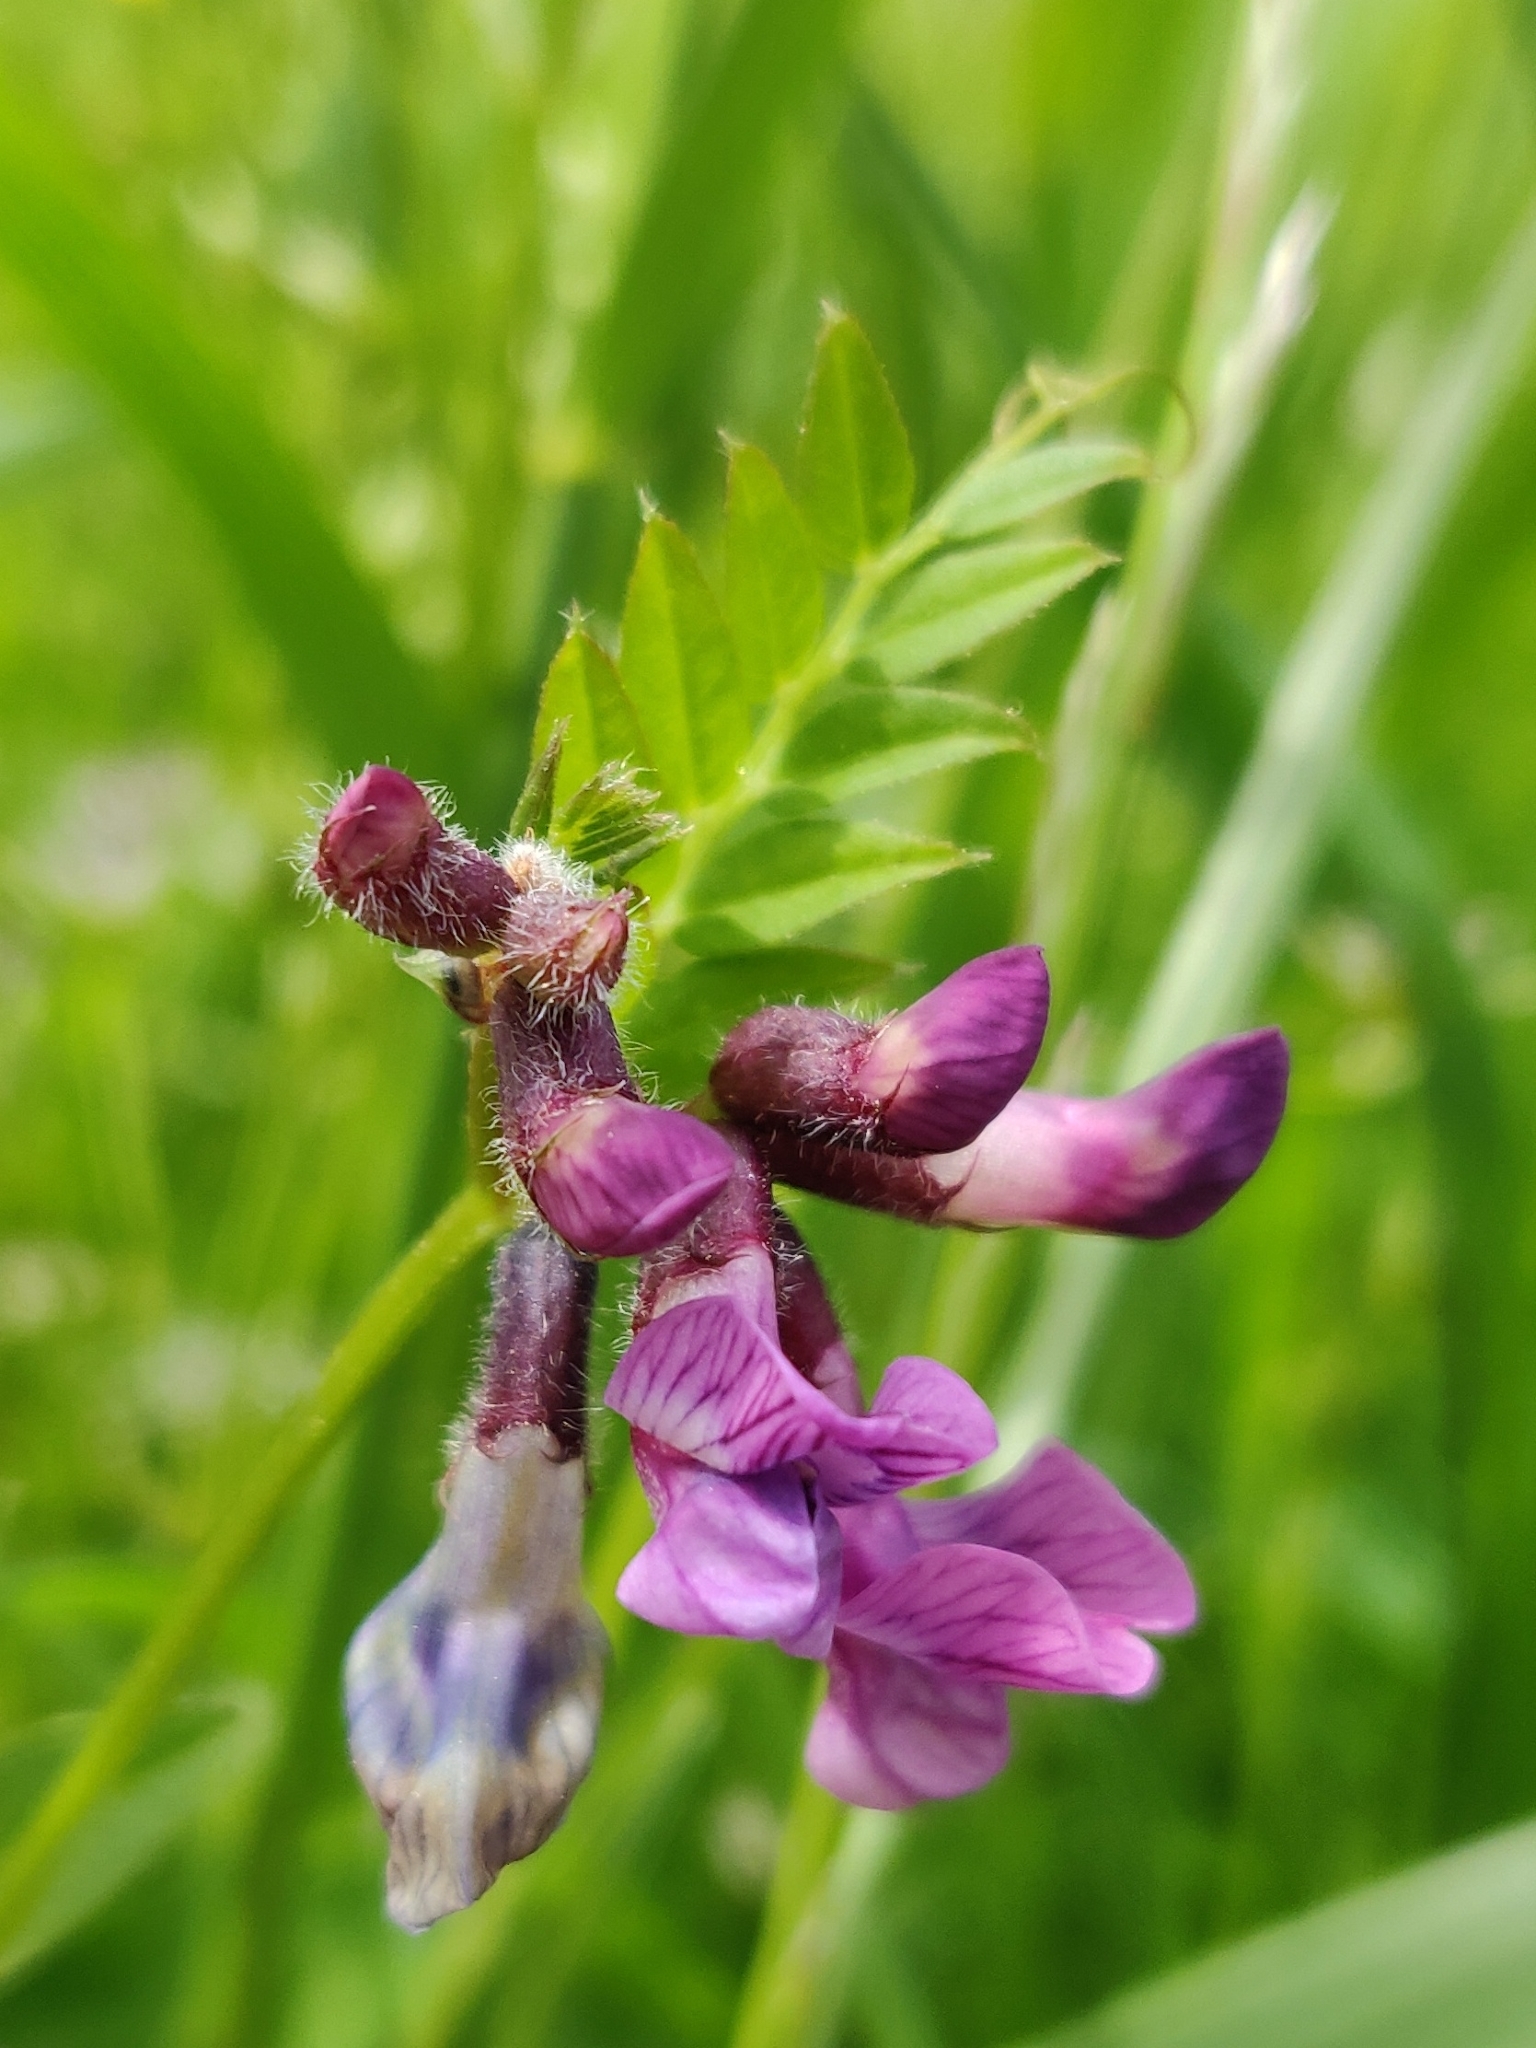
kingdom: Plantae
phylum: Tracheophyta
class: Magnoliopsida
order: Fabales
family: Fabaceae
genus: Vicia
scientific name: Vicia sepium
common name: Bush vetch
